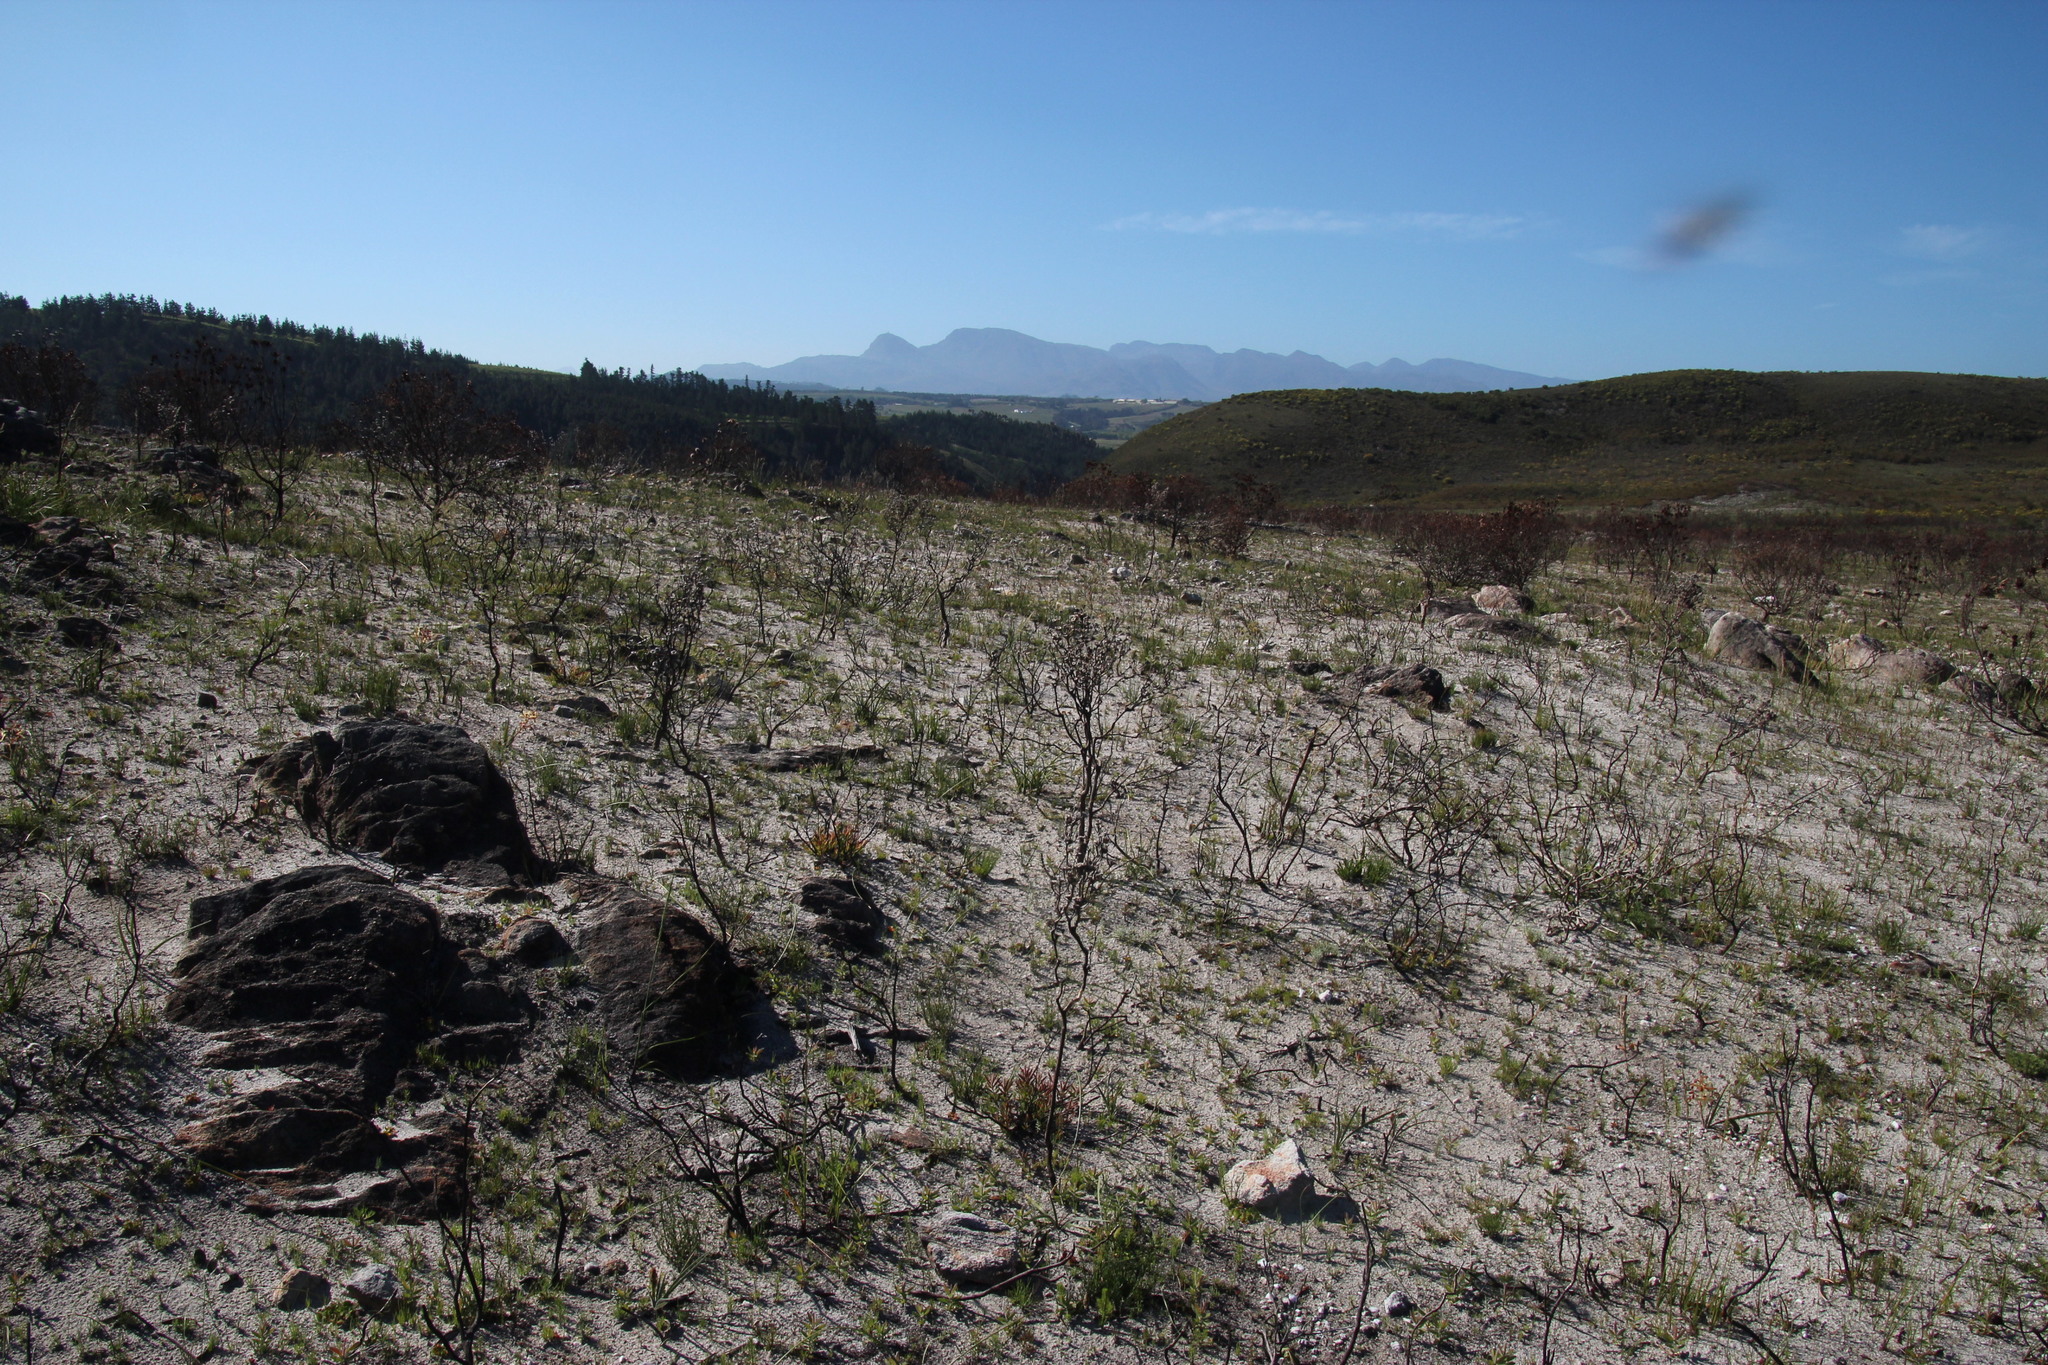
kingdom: Plantae
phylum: Tracheophyta
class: Magnoliopsida
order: Asterales
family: Asteraceae
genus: Phaenocoma
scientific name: Phaenocoma prolifera
